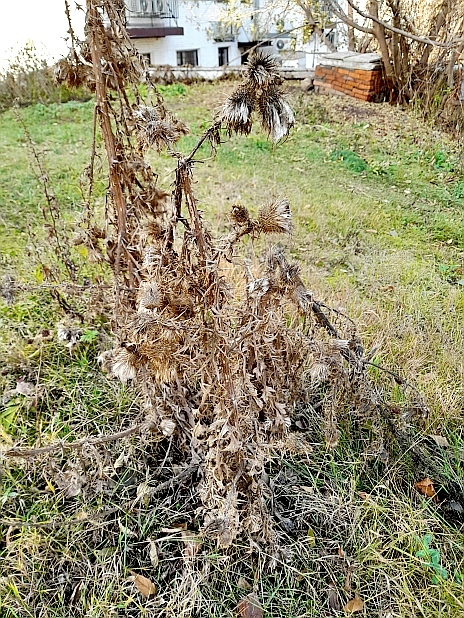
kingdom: Plantae
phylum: Tracheophyta
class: Magnoliopsida
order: Asterales
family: Asteraceae
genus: Cirsium
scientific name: Cirsium vulgare
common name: Bull thistle
